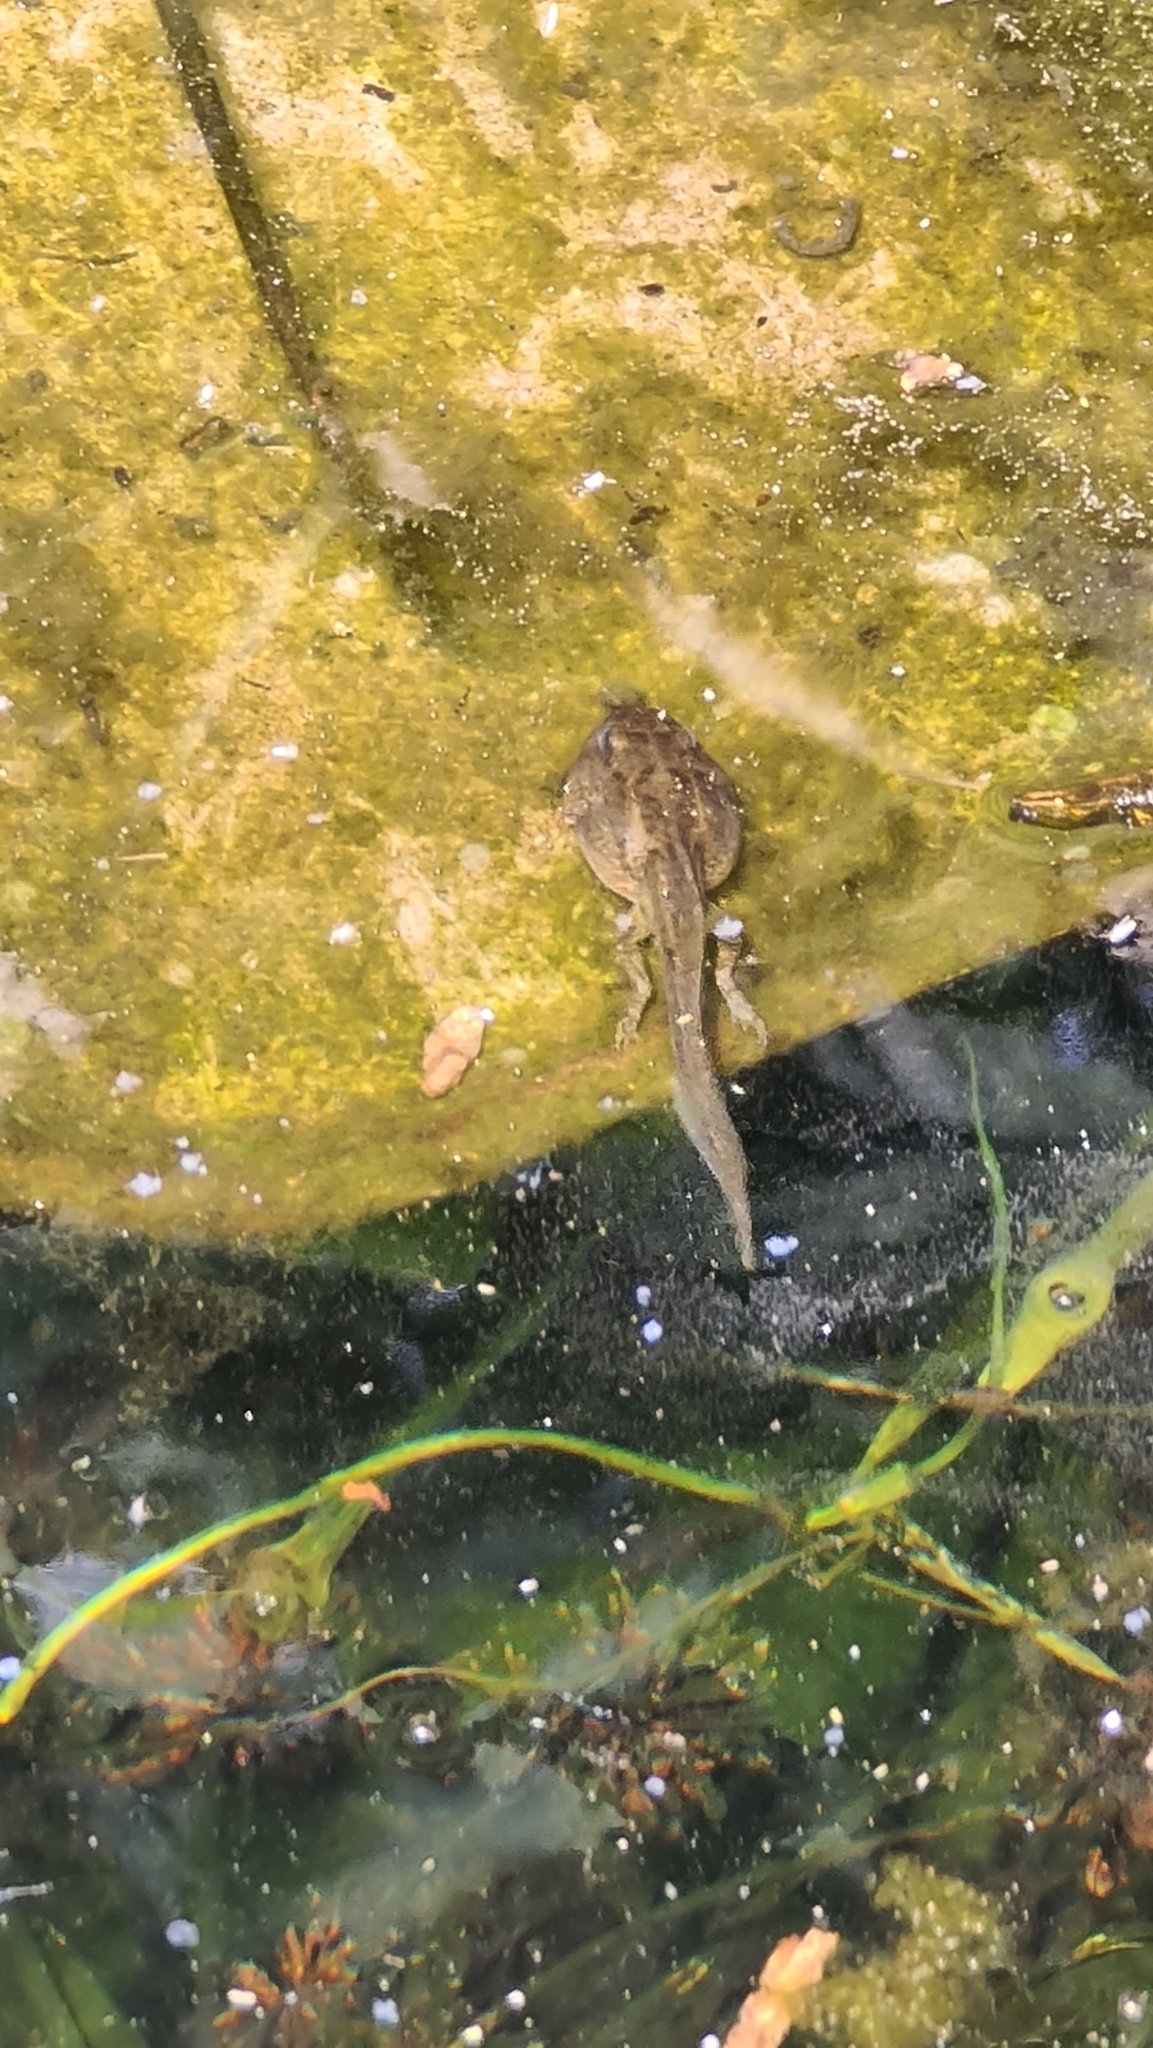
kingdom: Animalia
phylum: Chordata
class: Amphibia
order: Anura
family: Ranidae
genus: Rana
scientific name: Rana temporaria
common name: Common frog
